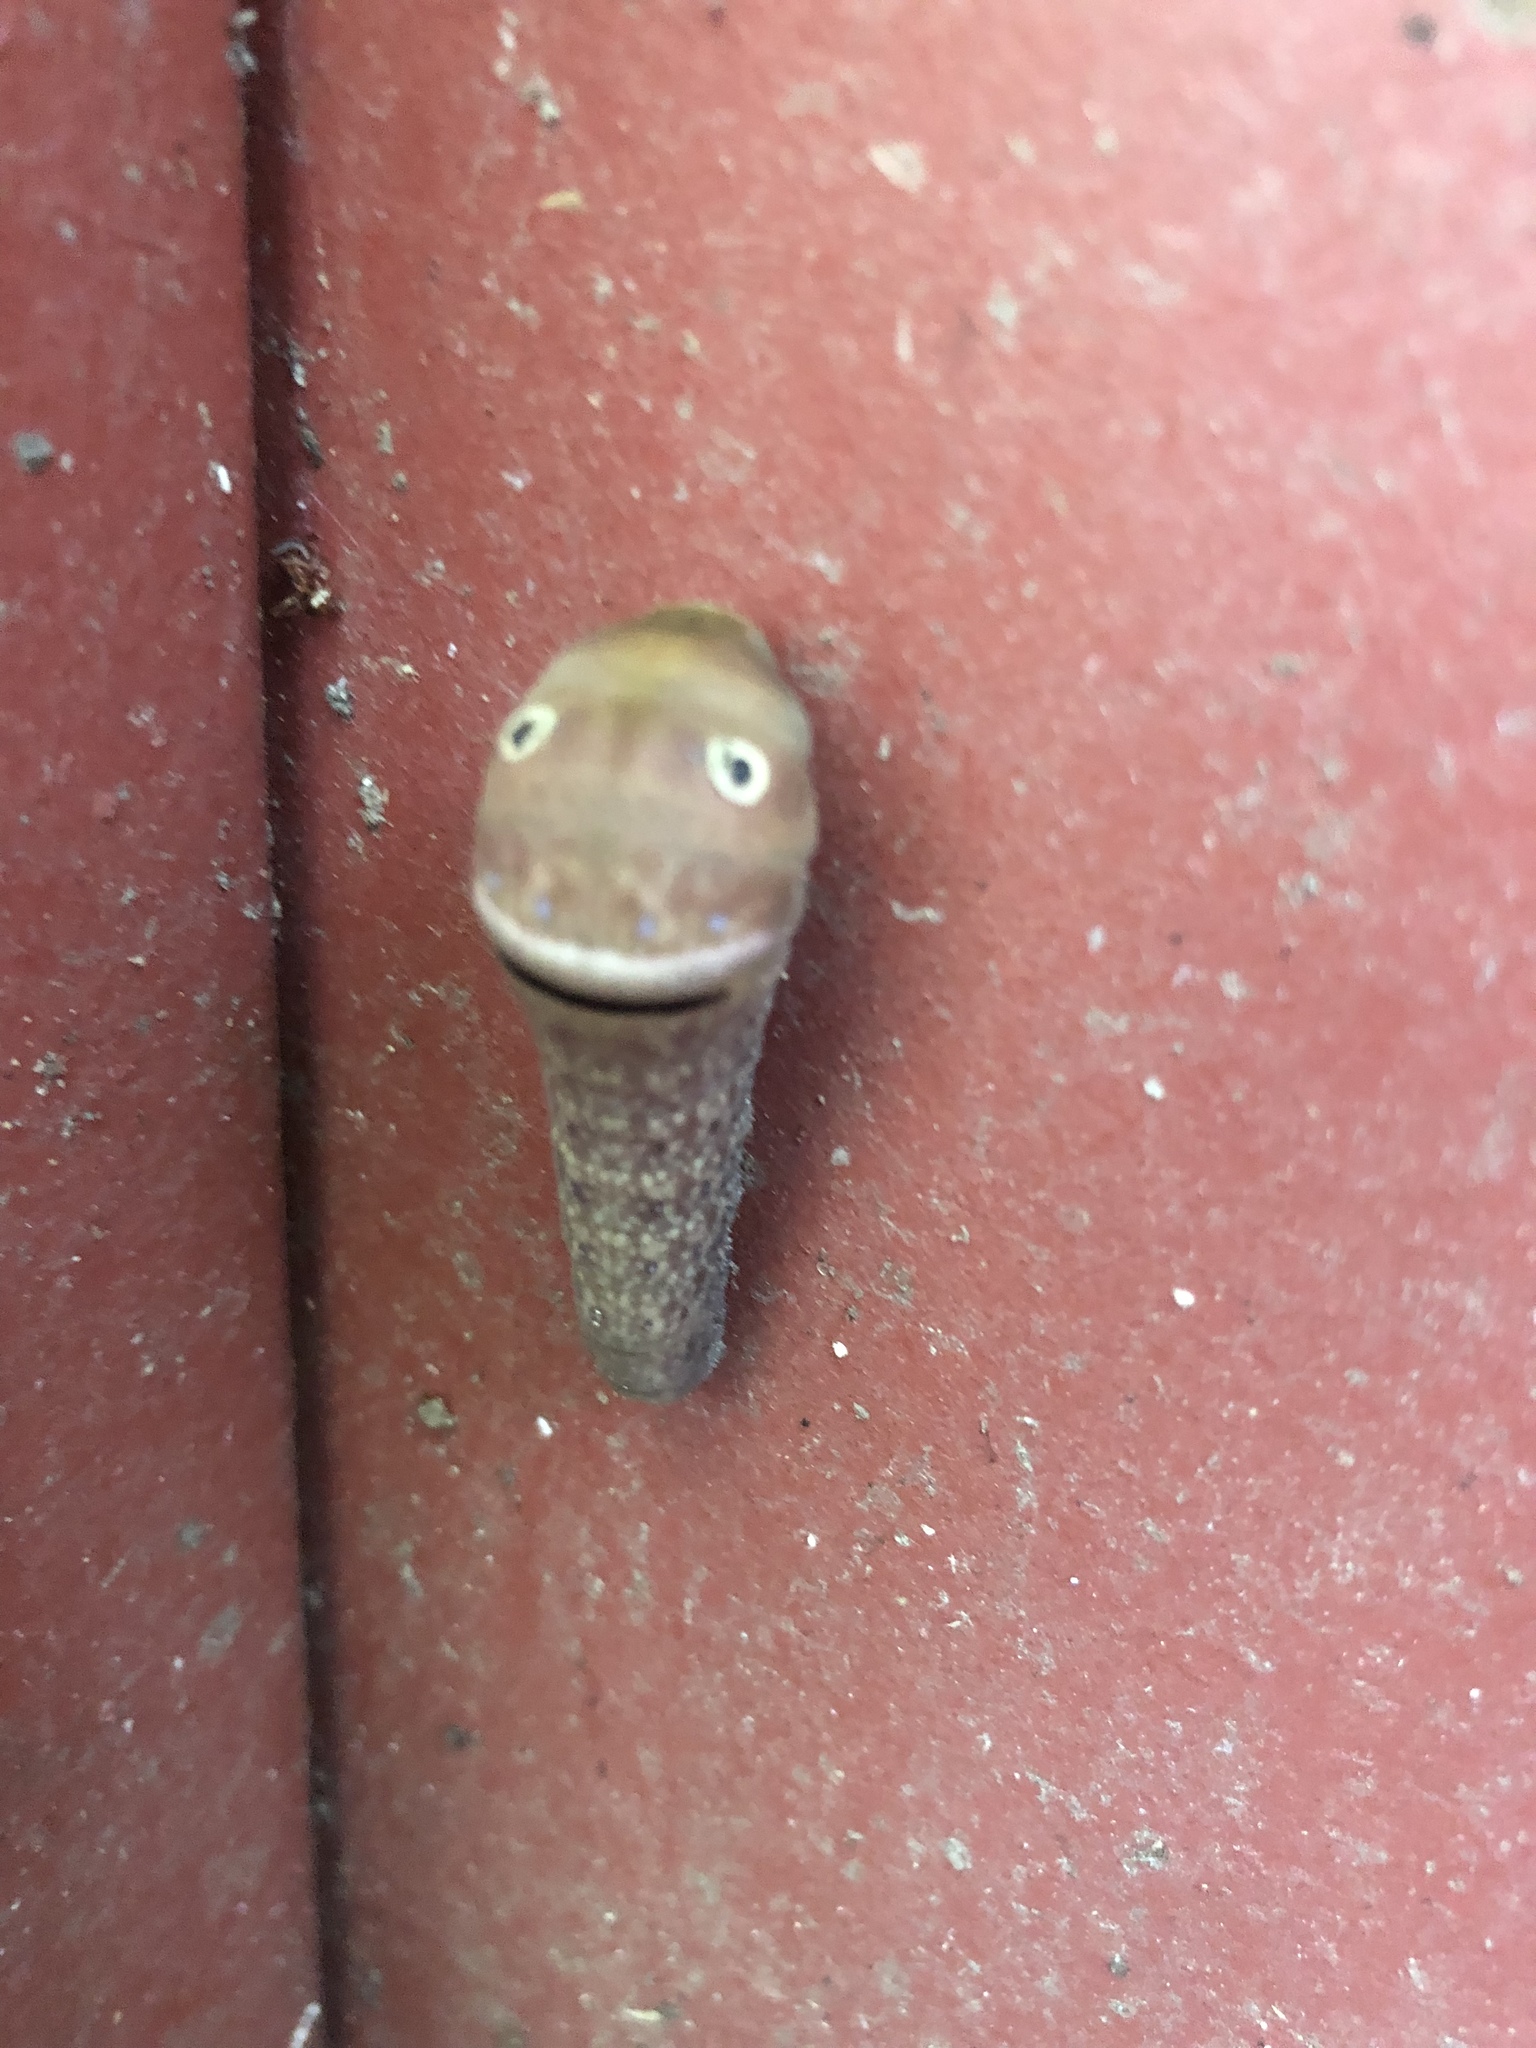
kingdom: Animalia
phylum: Arthropoda
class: Insecta
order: Lepidoptera
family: Papilionidae
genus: Papilio
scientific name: Papilio glaucus
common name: Tiger swallowtail
